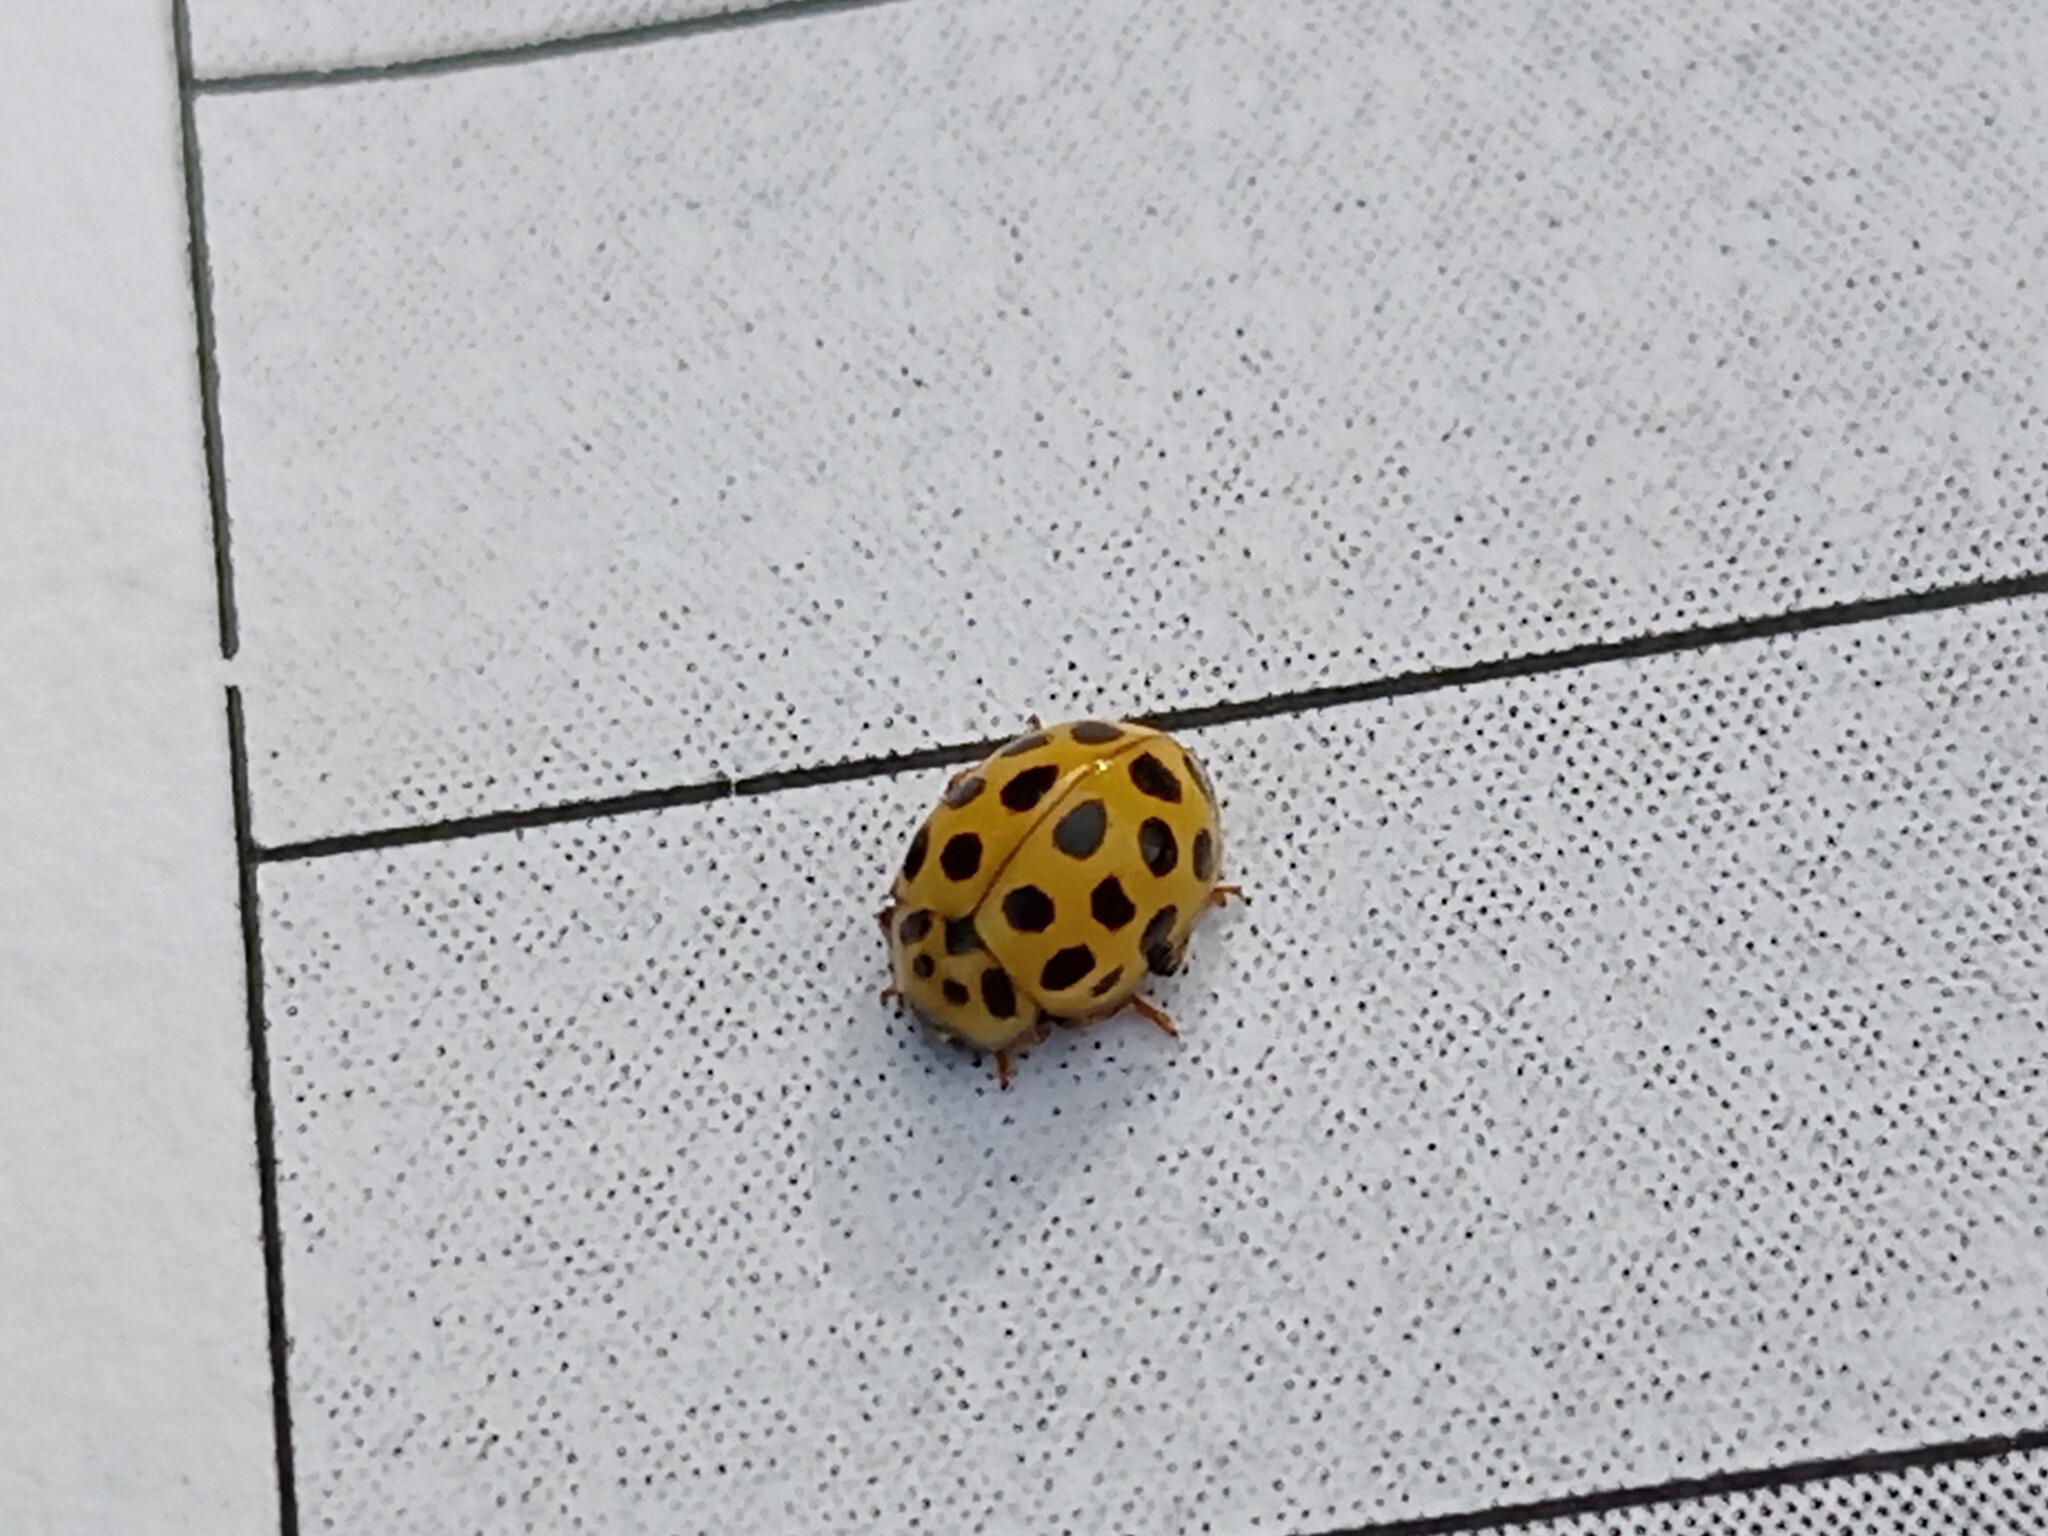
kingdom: Animalia
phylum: Arthropoda
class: Insecta
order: Coleoptera
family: Coccinellidae
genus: Psyllobora
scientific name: Psyllobora vigintiduopunctata
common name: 22-spot ladybird
